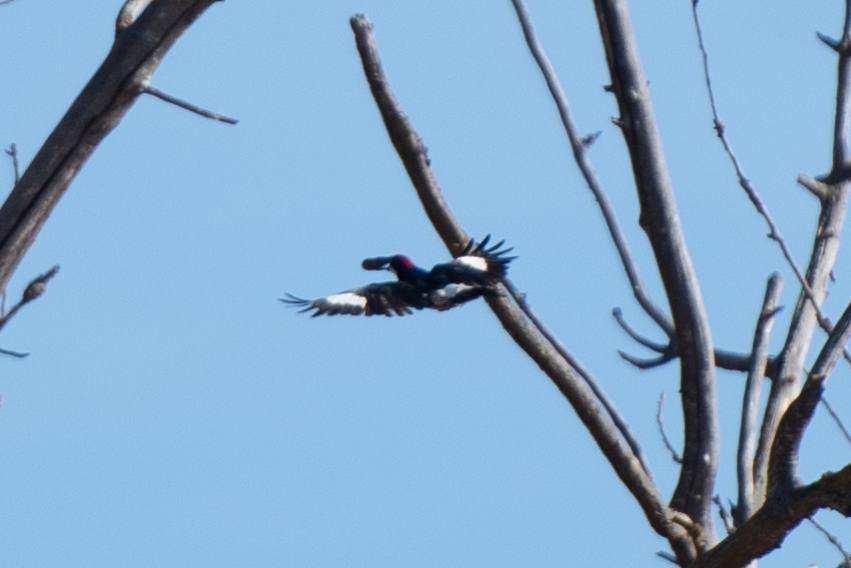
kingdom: Animalia
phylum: Chordata
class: Aves
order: Piciformes
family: Picidae
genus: Melanerpes
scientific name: Melanerpes formicivorus
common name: Acorn woodpecker
